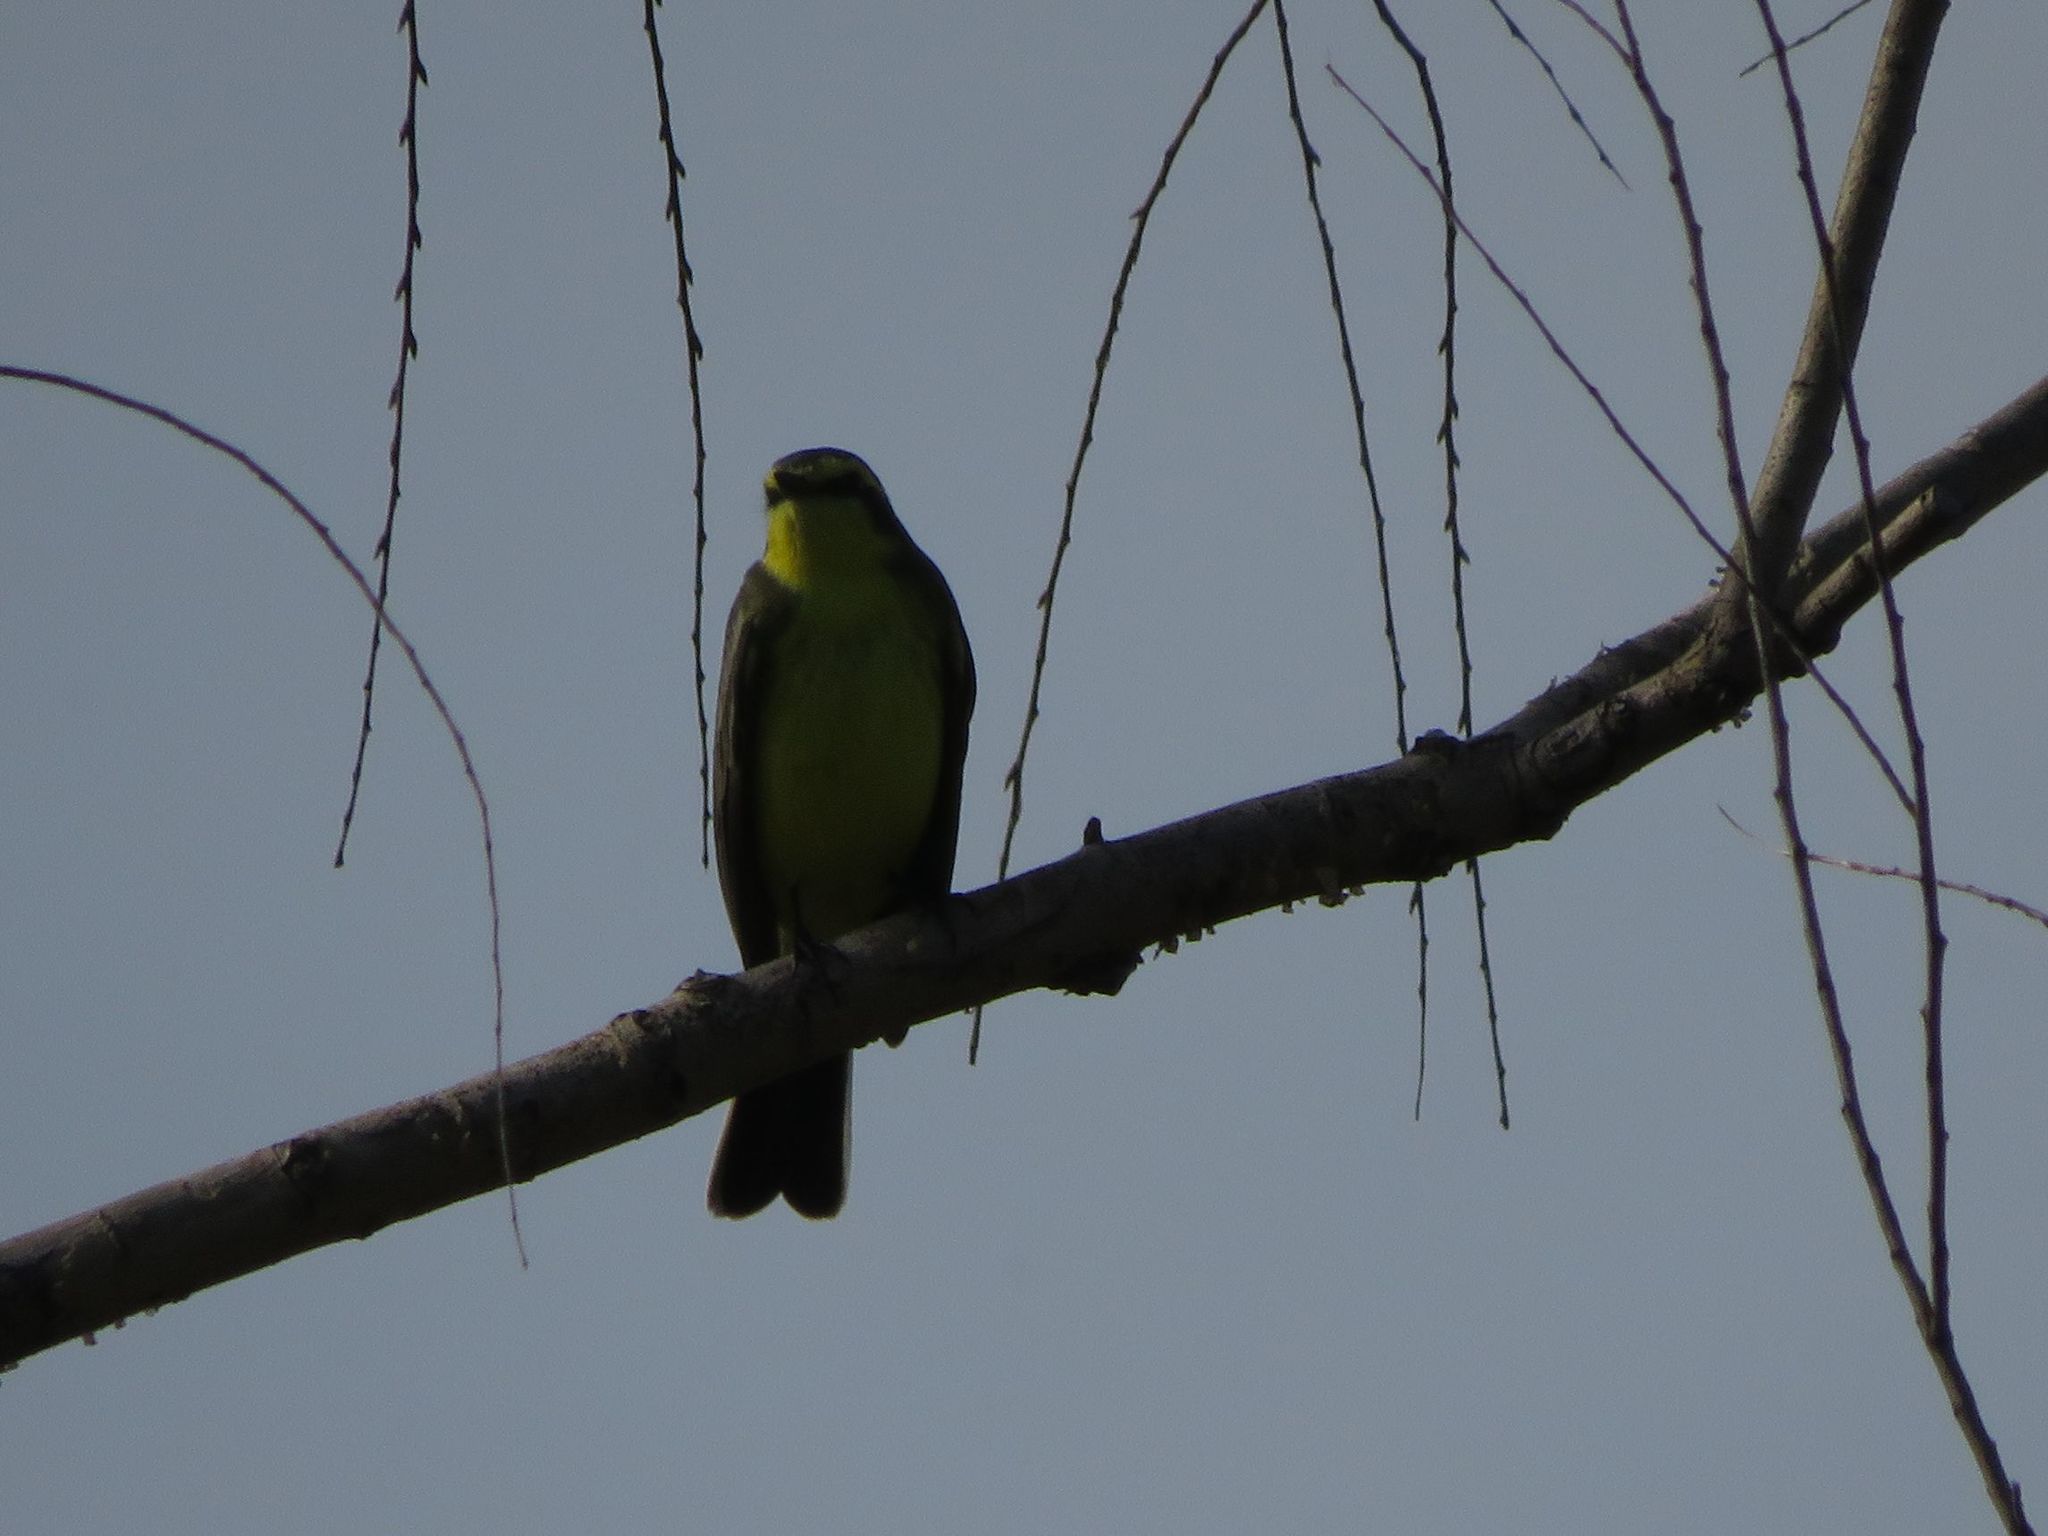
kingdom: Animalia
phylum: Chordata
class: Aves
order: Passeriformes
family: Tyrannidae
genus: Satrapa
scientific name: Satrapa icterophrys
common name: Yellow-browed tyrant
